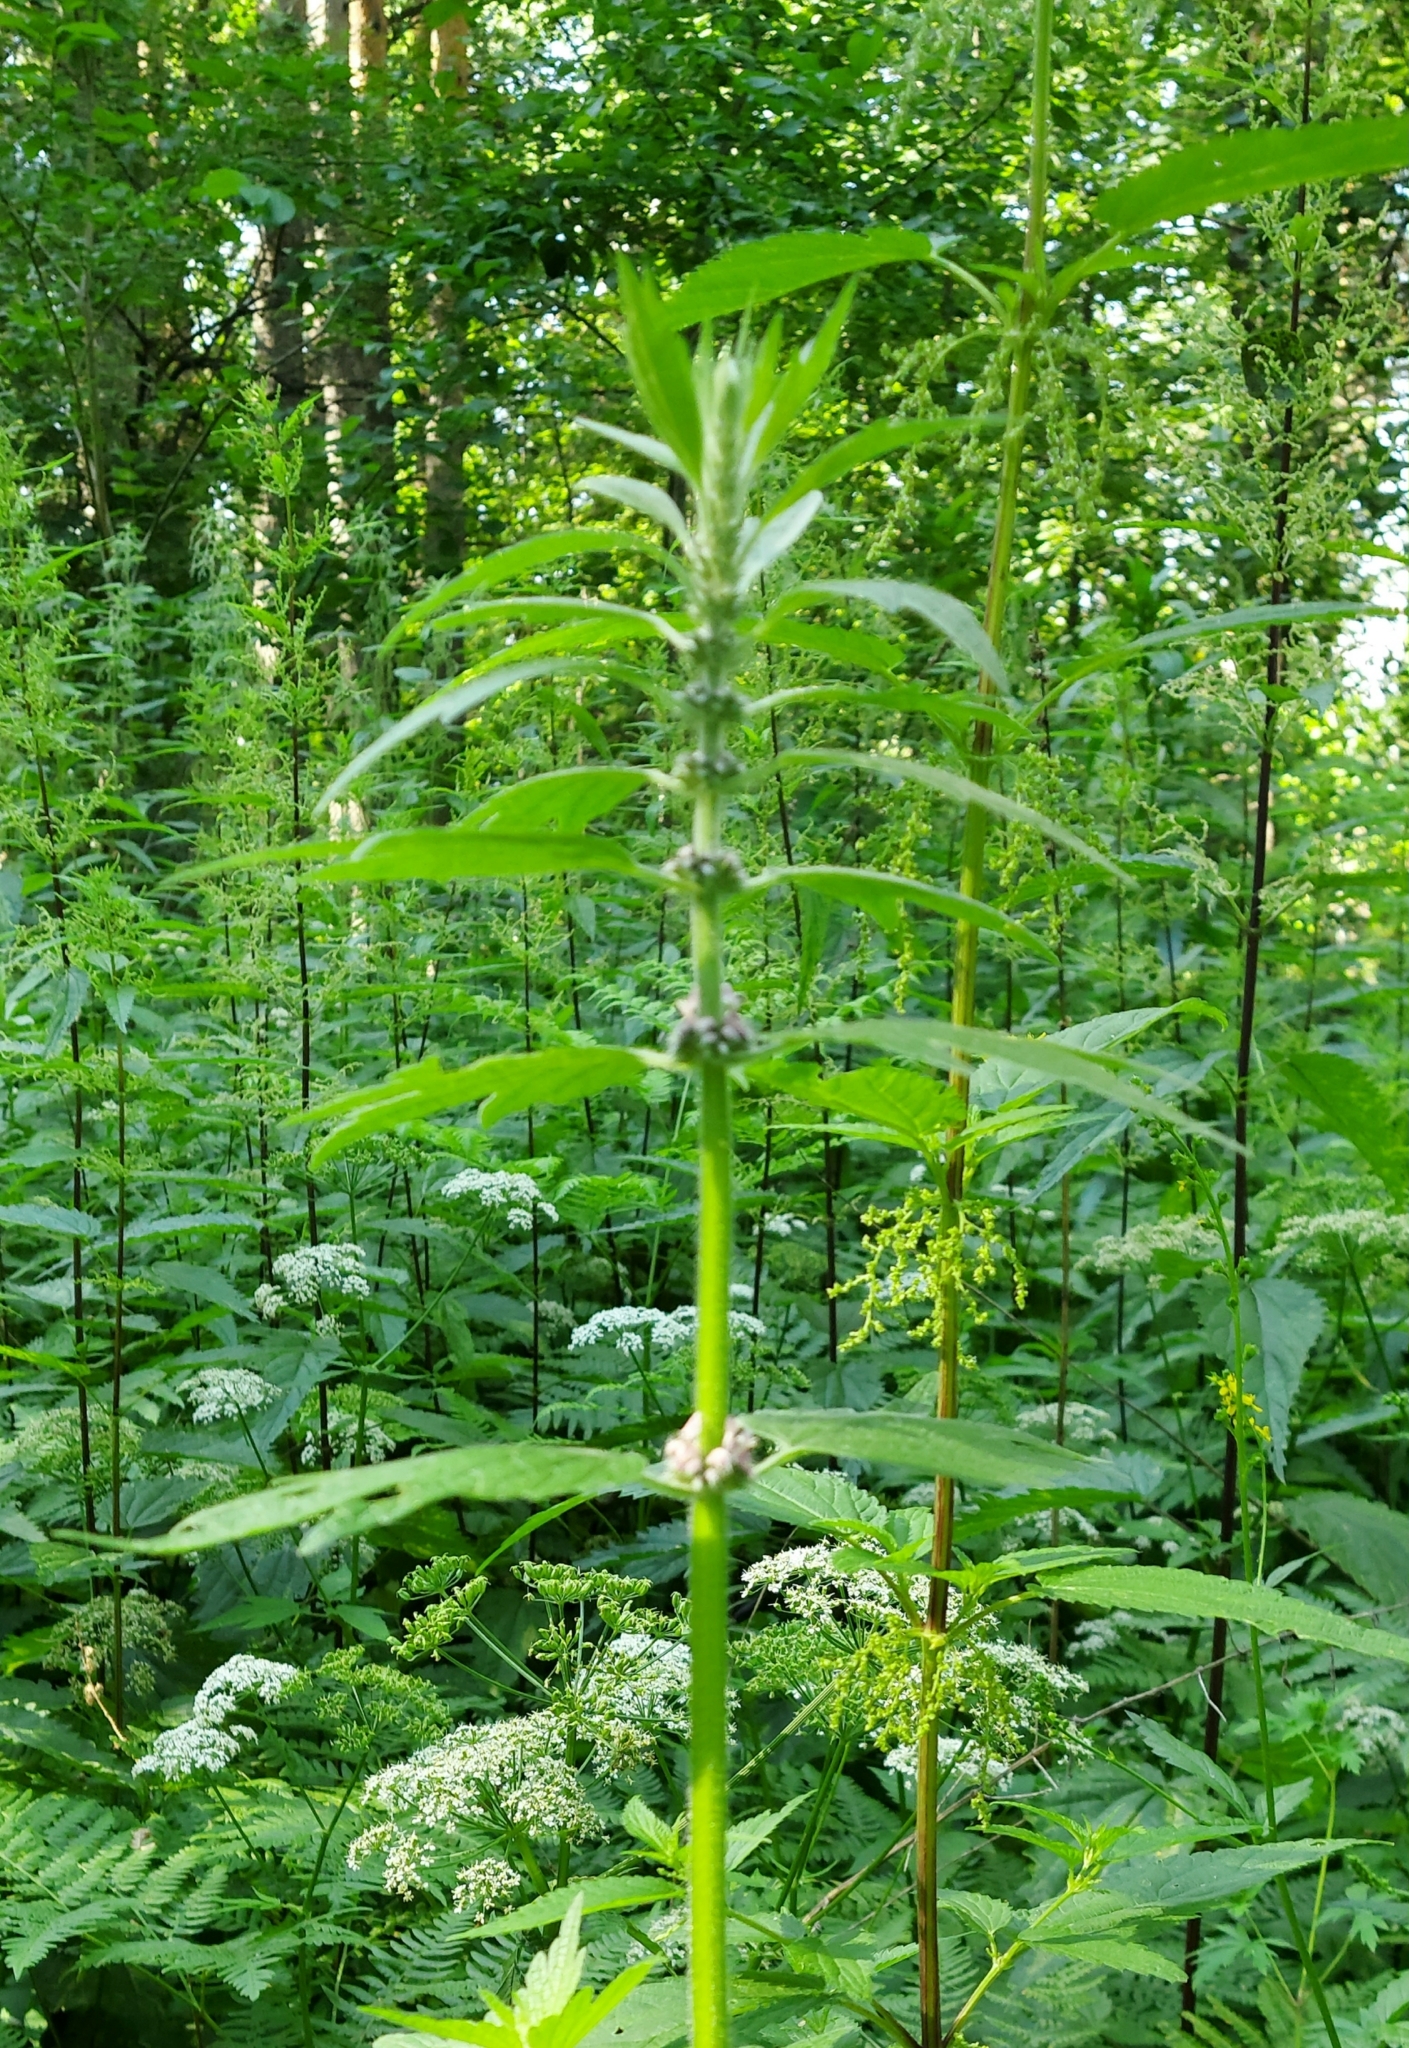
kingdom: Plantae
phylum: Tracheophyta
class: Magnoliopsida
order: Lamiales
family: Lamiaceae
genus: Leonurus
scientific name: Leonurus quinquelobatus
